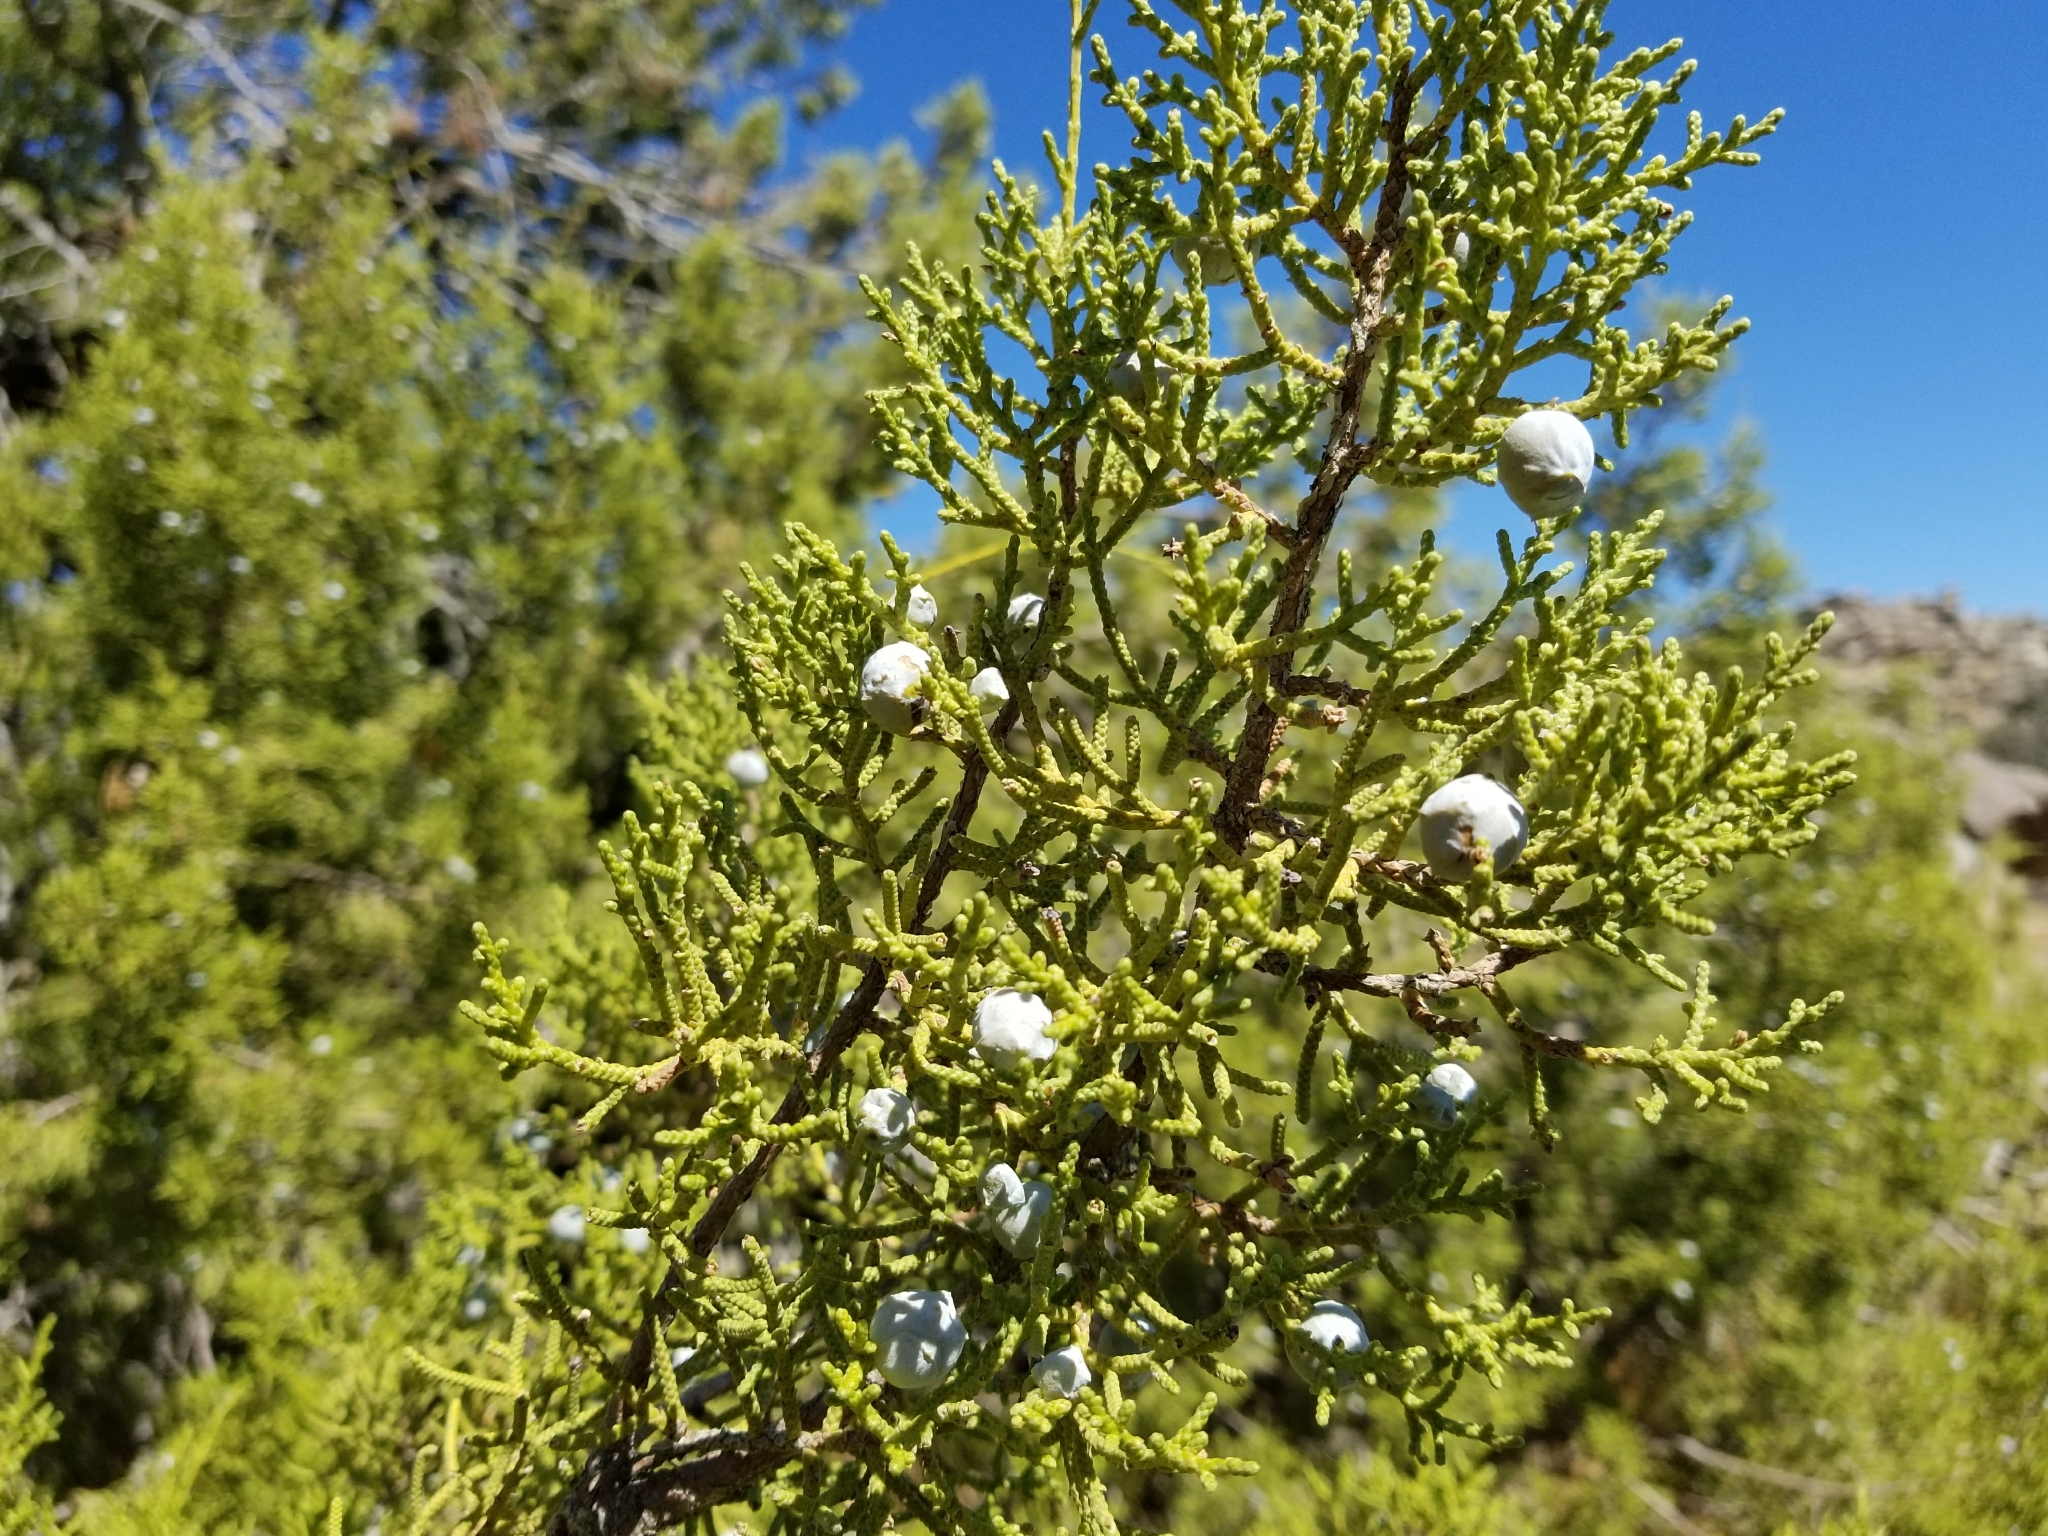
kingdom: Plantae
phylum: Tracheophyta
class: Pinopsida
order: Pinales
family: Cupressaceae
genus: Juniperus
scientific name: Juniperus californica
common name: California juniper
